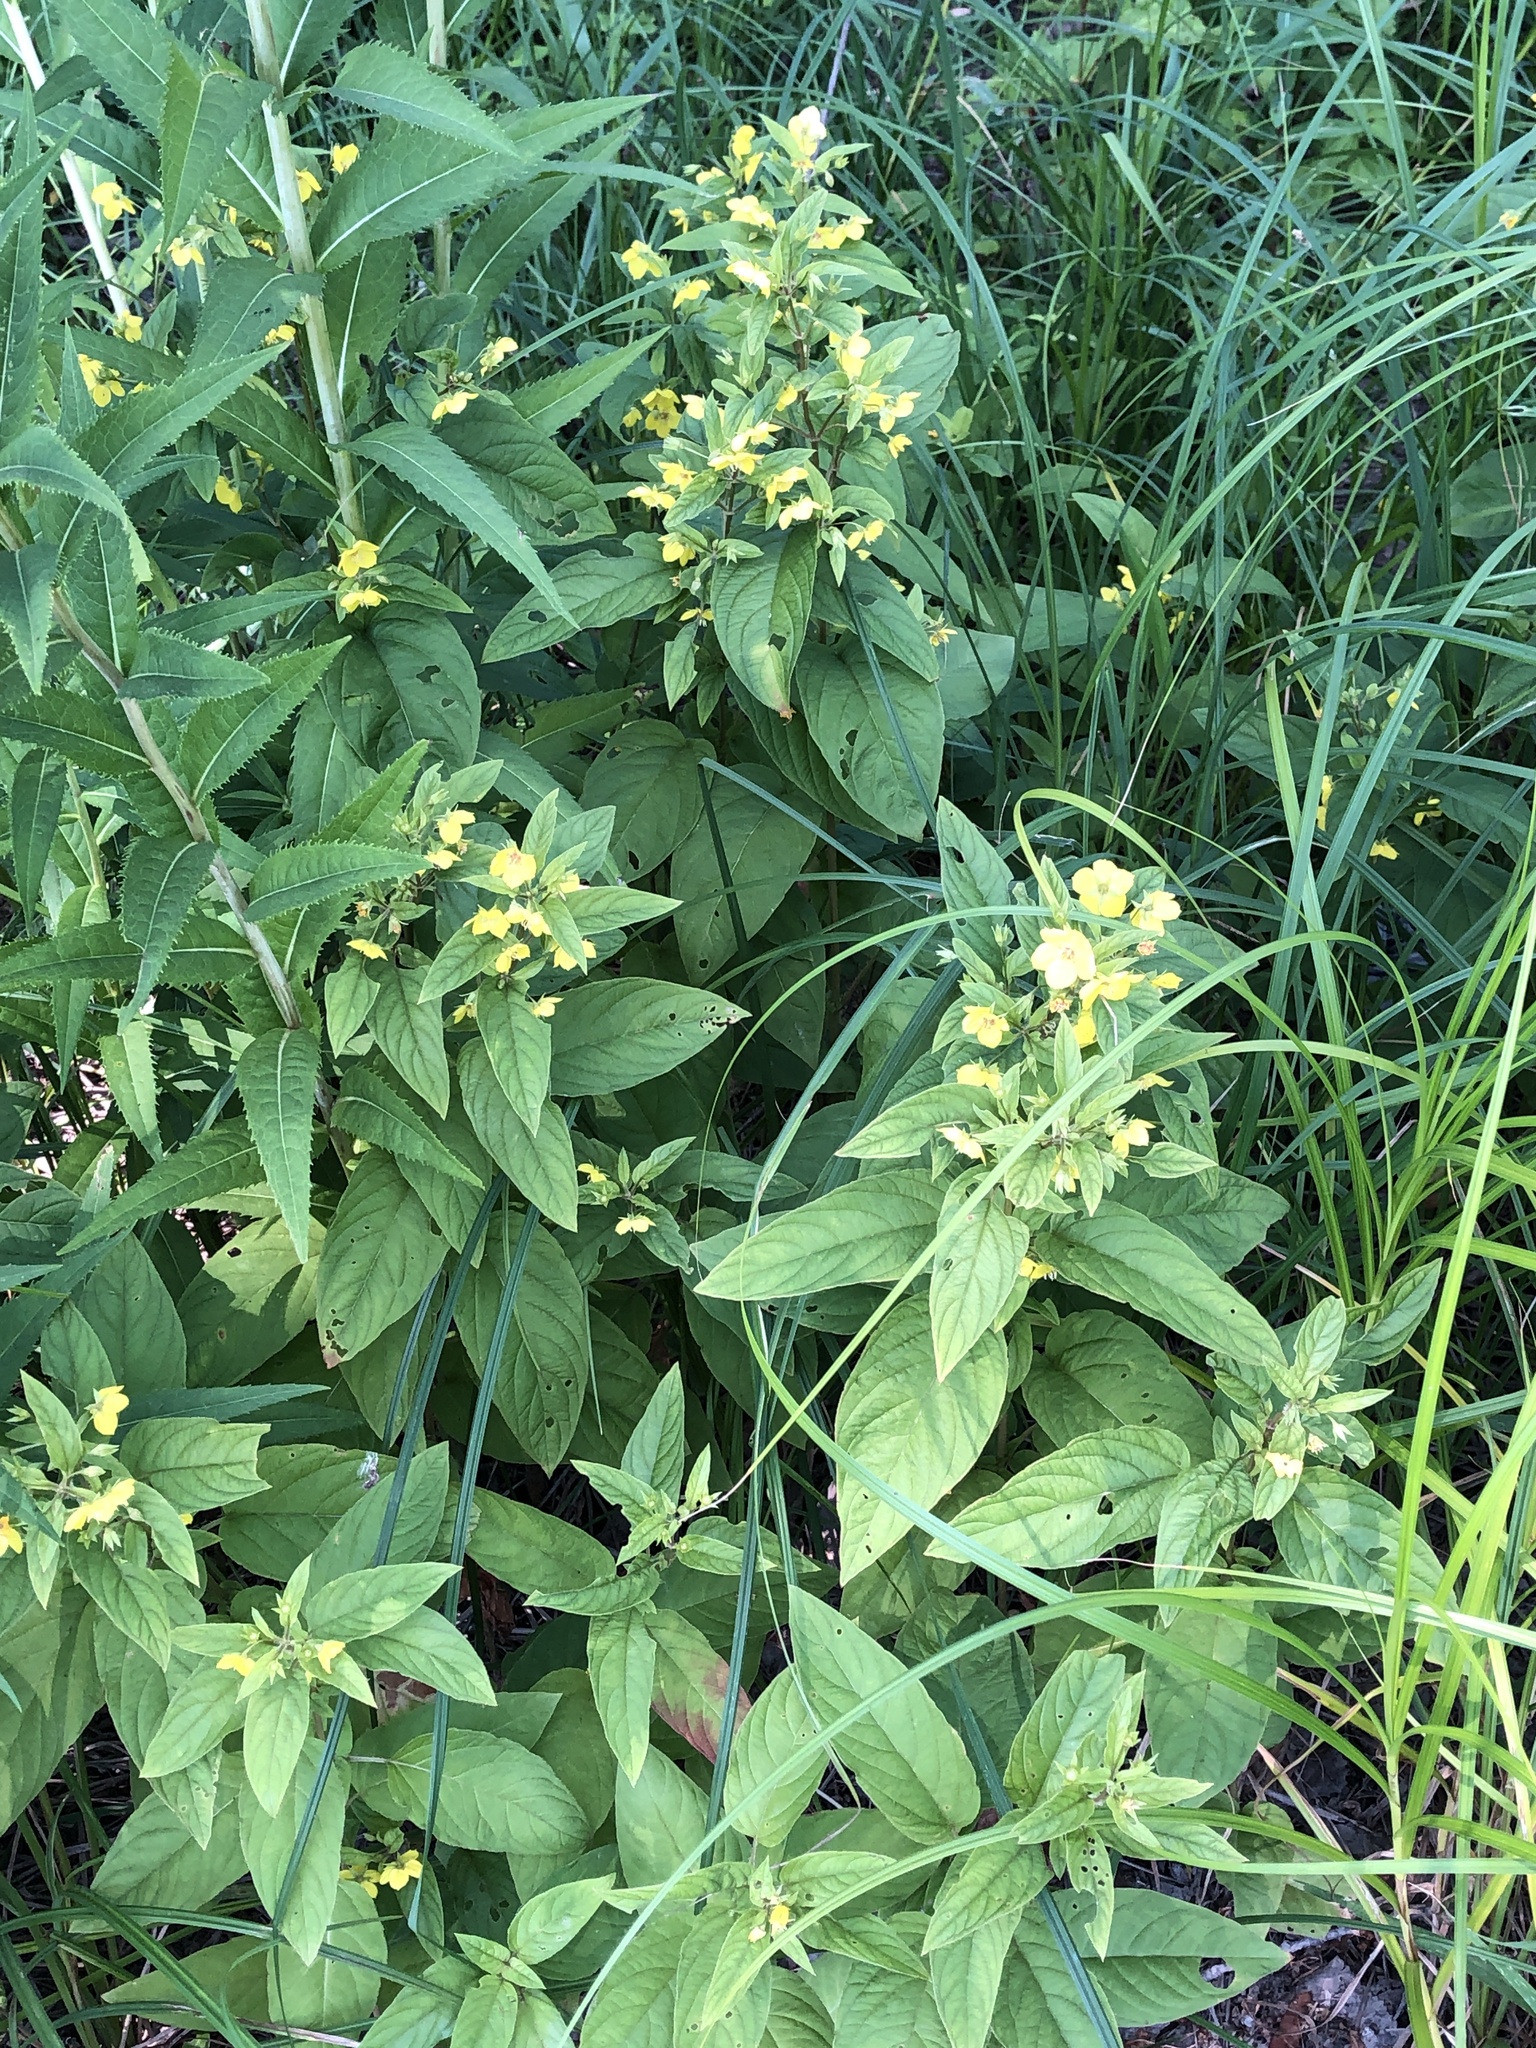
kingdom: Plantae
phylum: Tracheophyta
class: Magnoliopsida
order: Ericales
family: Primulaceae
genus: Lysimachia
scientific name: Lysimachia ciliata
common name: Fringed loosestrife
